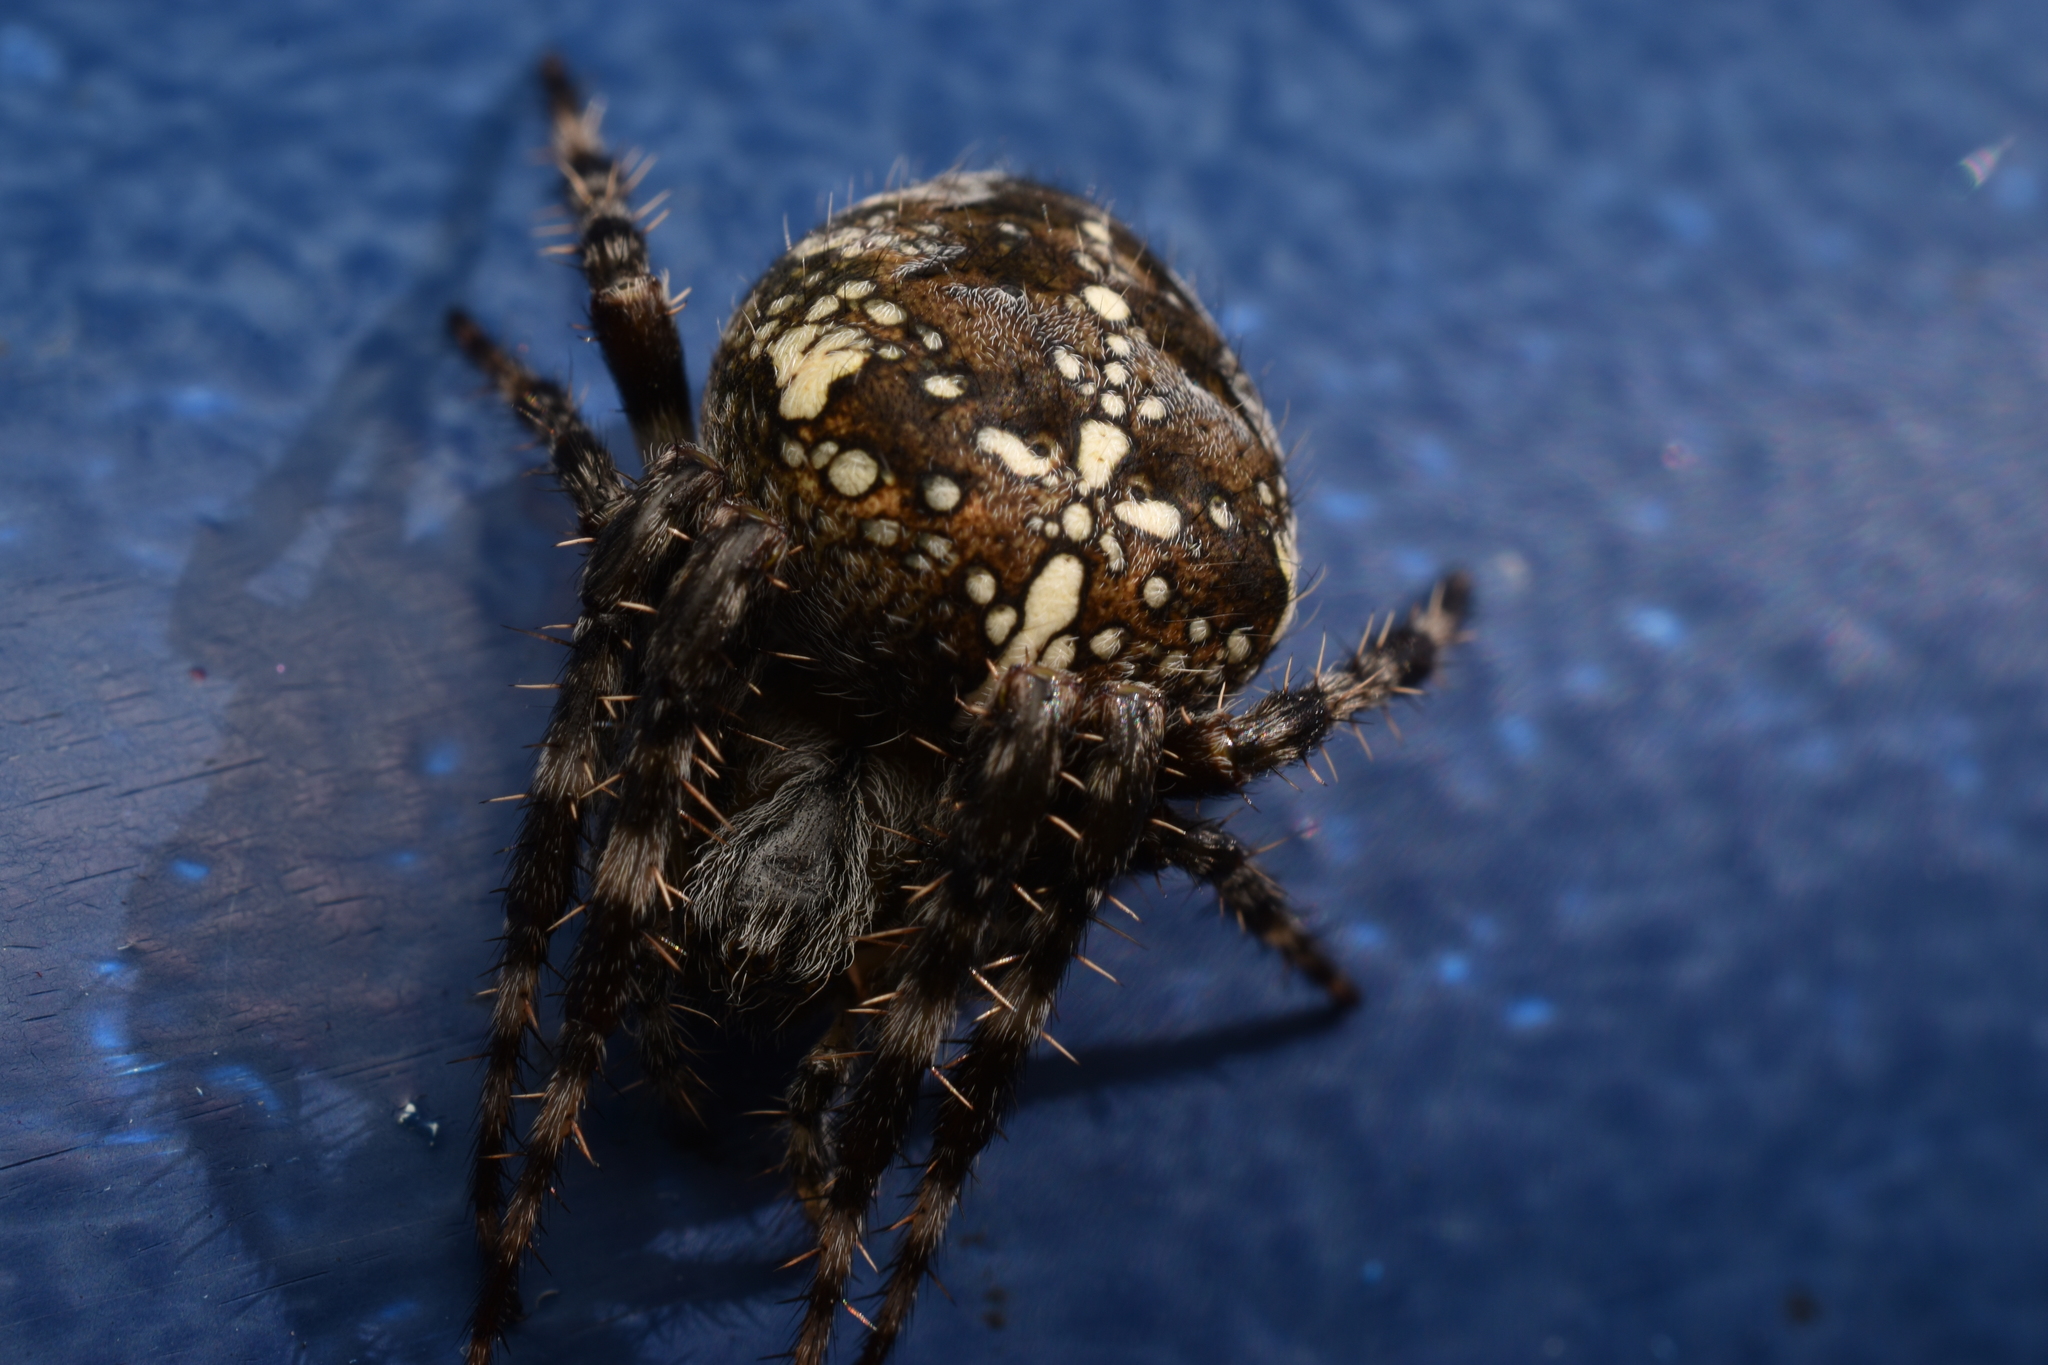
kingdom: Animalia
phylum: Arthropoda
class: Arachnida
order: Araneae
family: Araneidae
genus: Araneus
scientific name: Araneus diadematus
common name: Cross orbweaver
